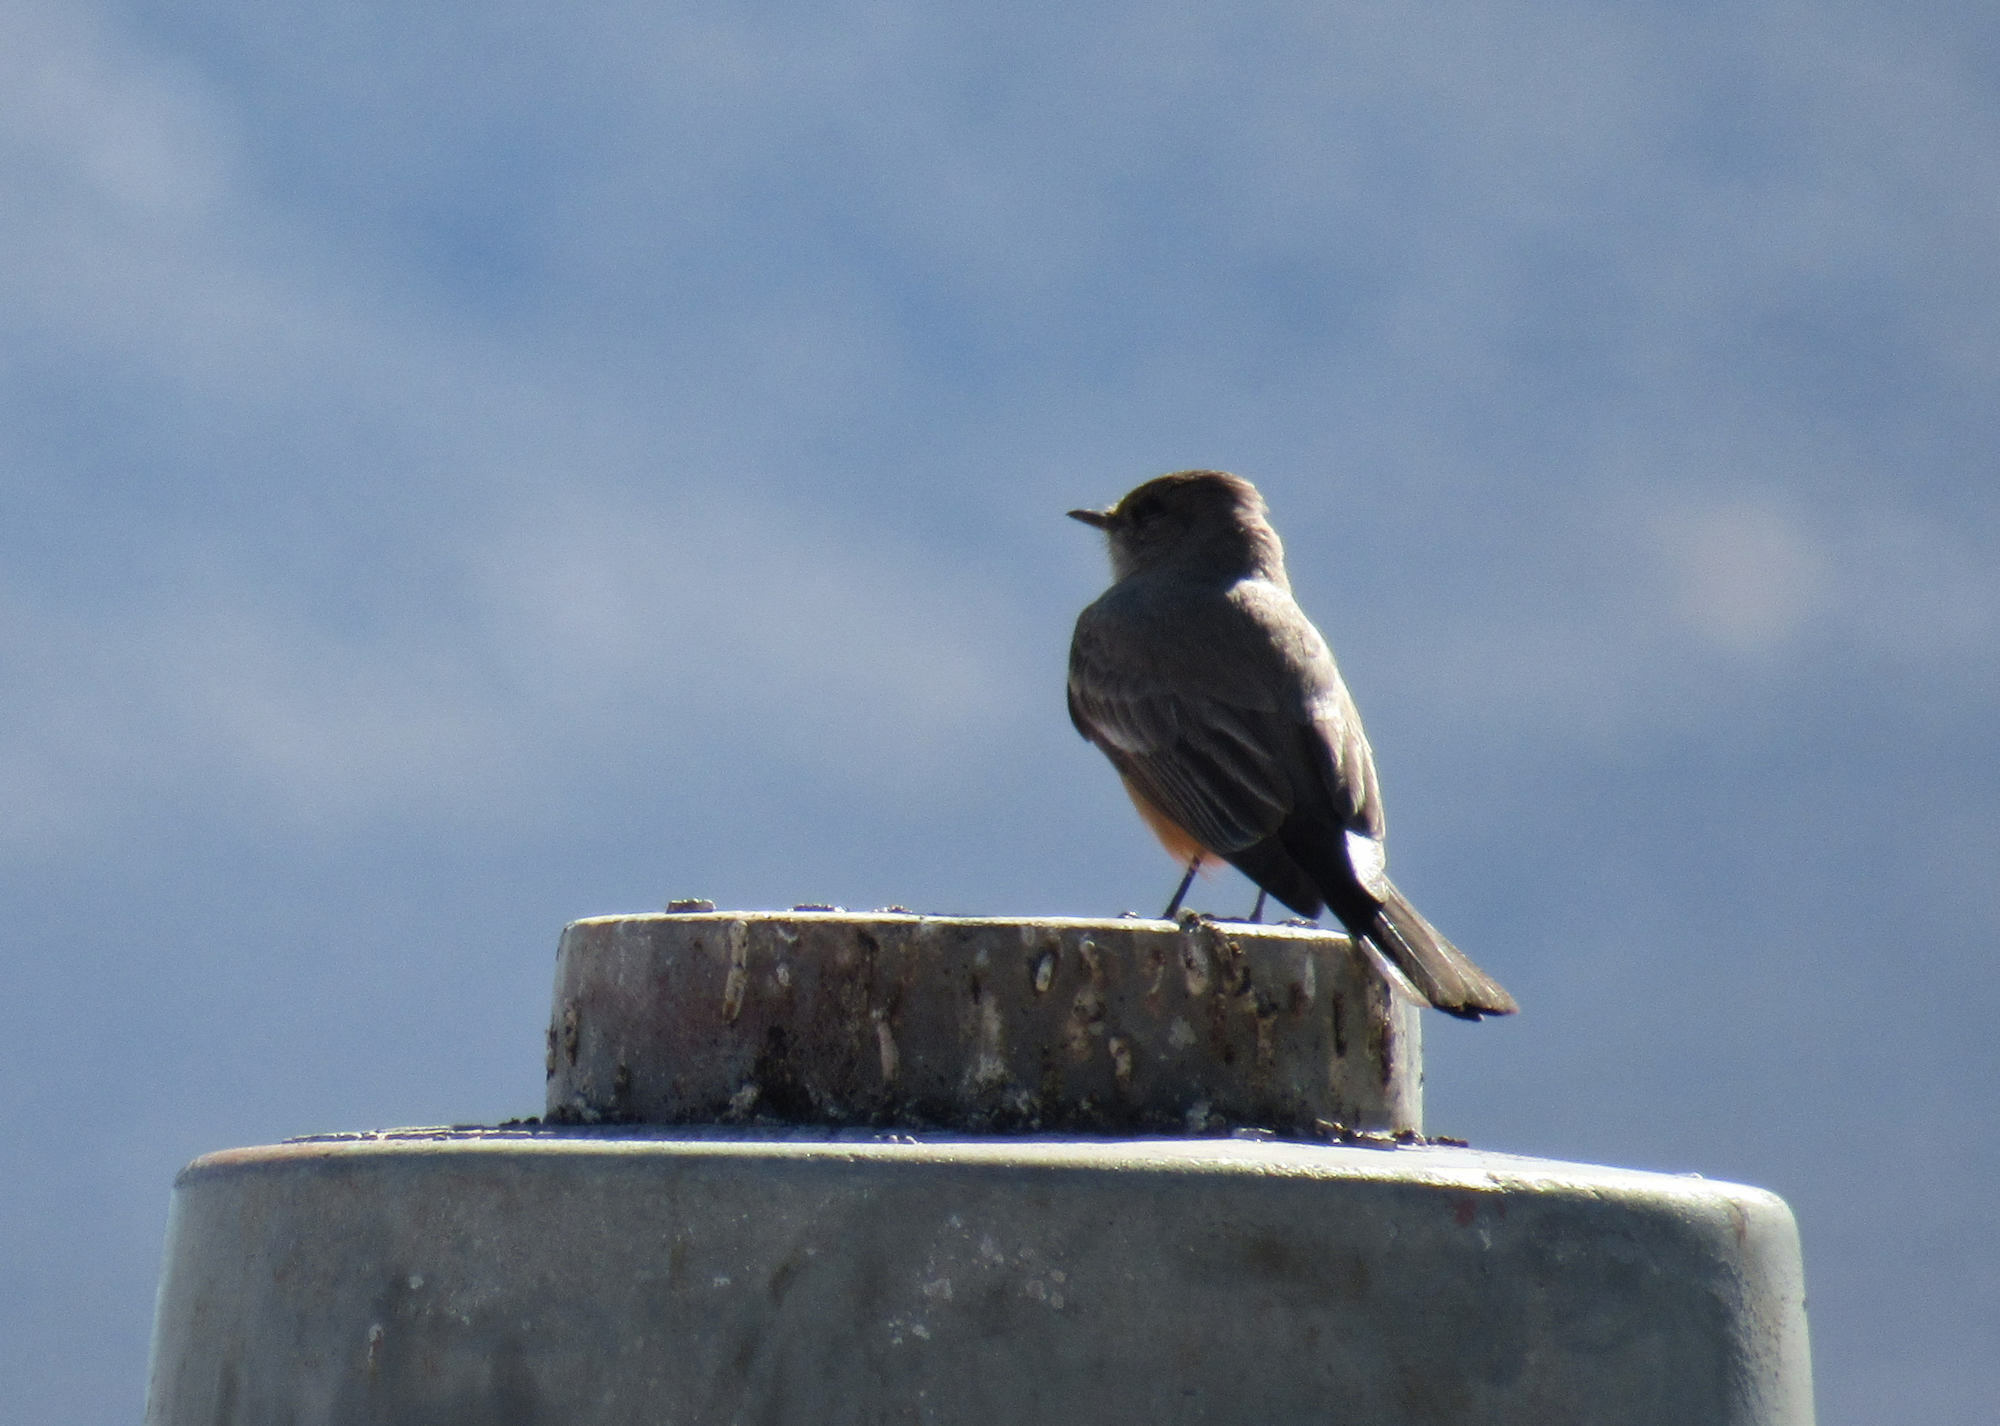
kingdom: Animalia
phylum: Chordata
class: Aves
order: Passeriformes
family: Tyrannidae
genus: Sayornis
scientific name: Sayornis saya
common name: Say's phoebe
